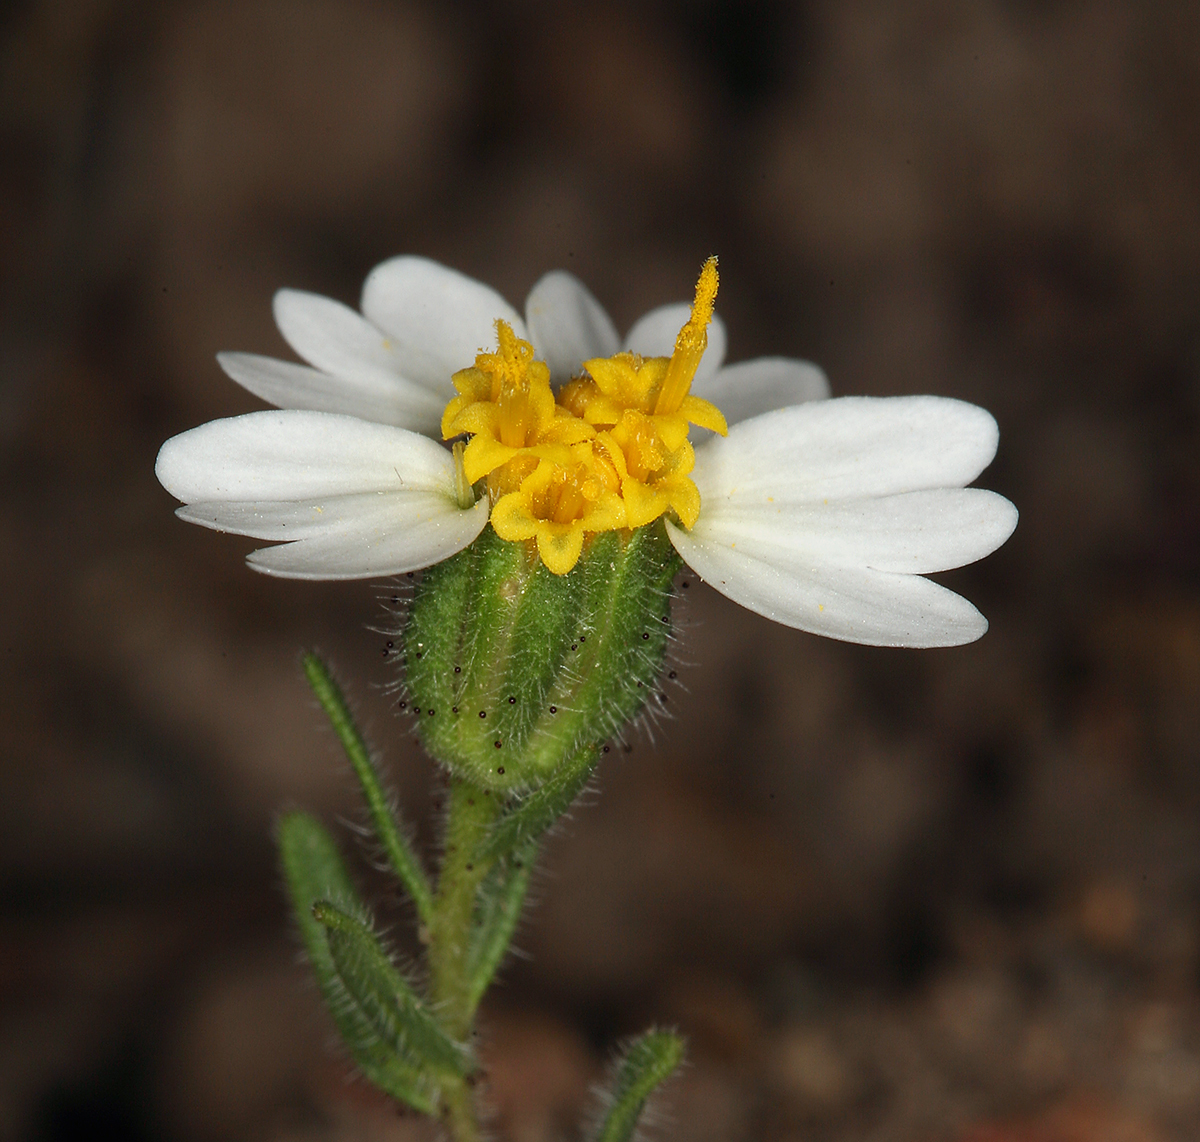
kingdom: Plantae
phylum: Tracheophyta
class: Magnoliopsida
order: Asterales
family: Asteraceae
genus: Layia
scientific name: Layia glandulosa
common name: White layia
